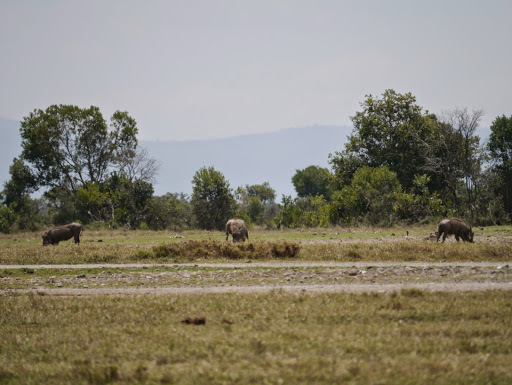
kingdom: Animalia
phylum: Chordata
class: Mammalia
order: Artiodactyla
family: Suidae
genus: Phacochoerus
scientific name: Phacochoerus africanus
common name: Common warthog
